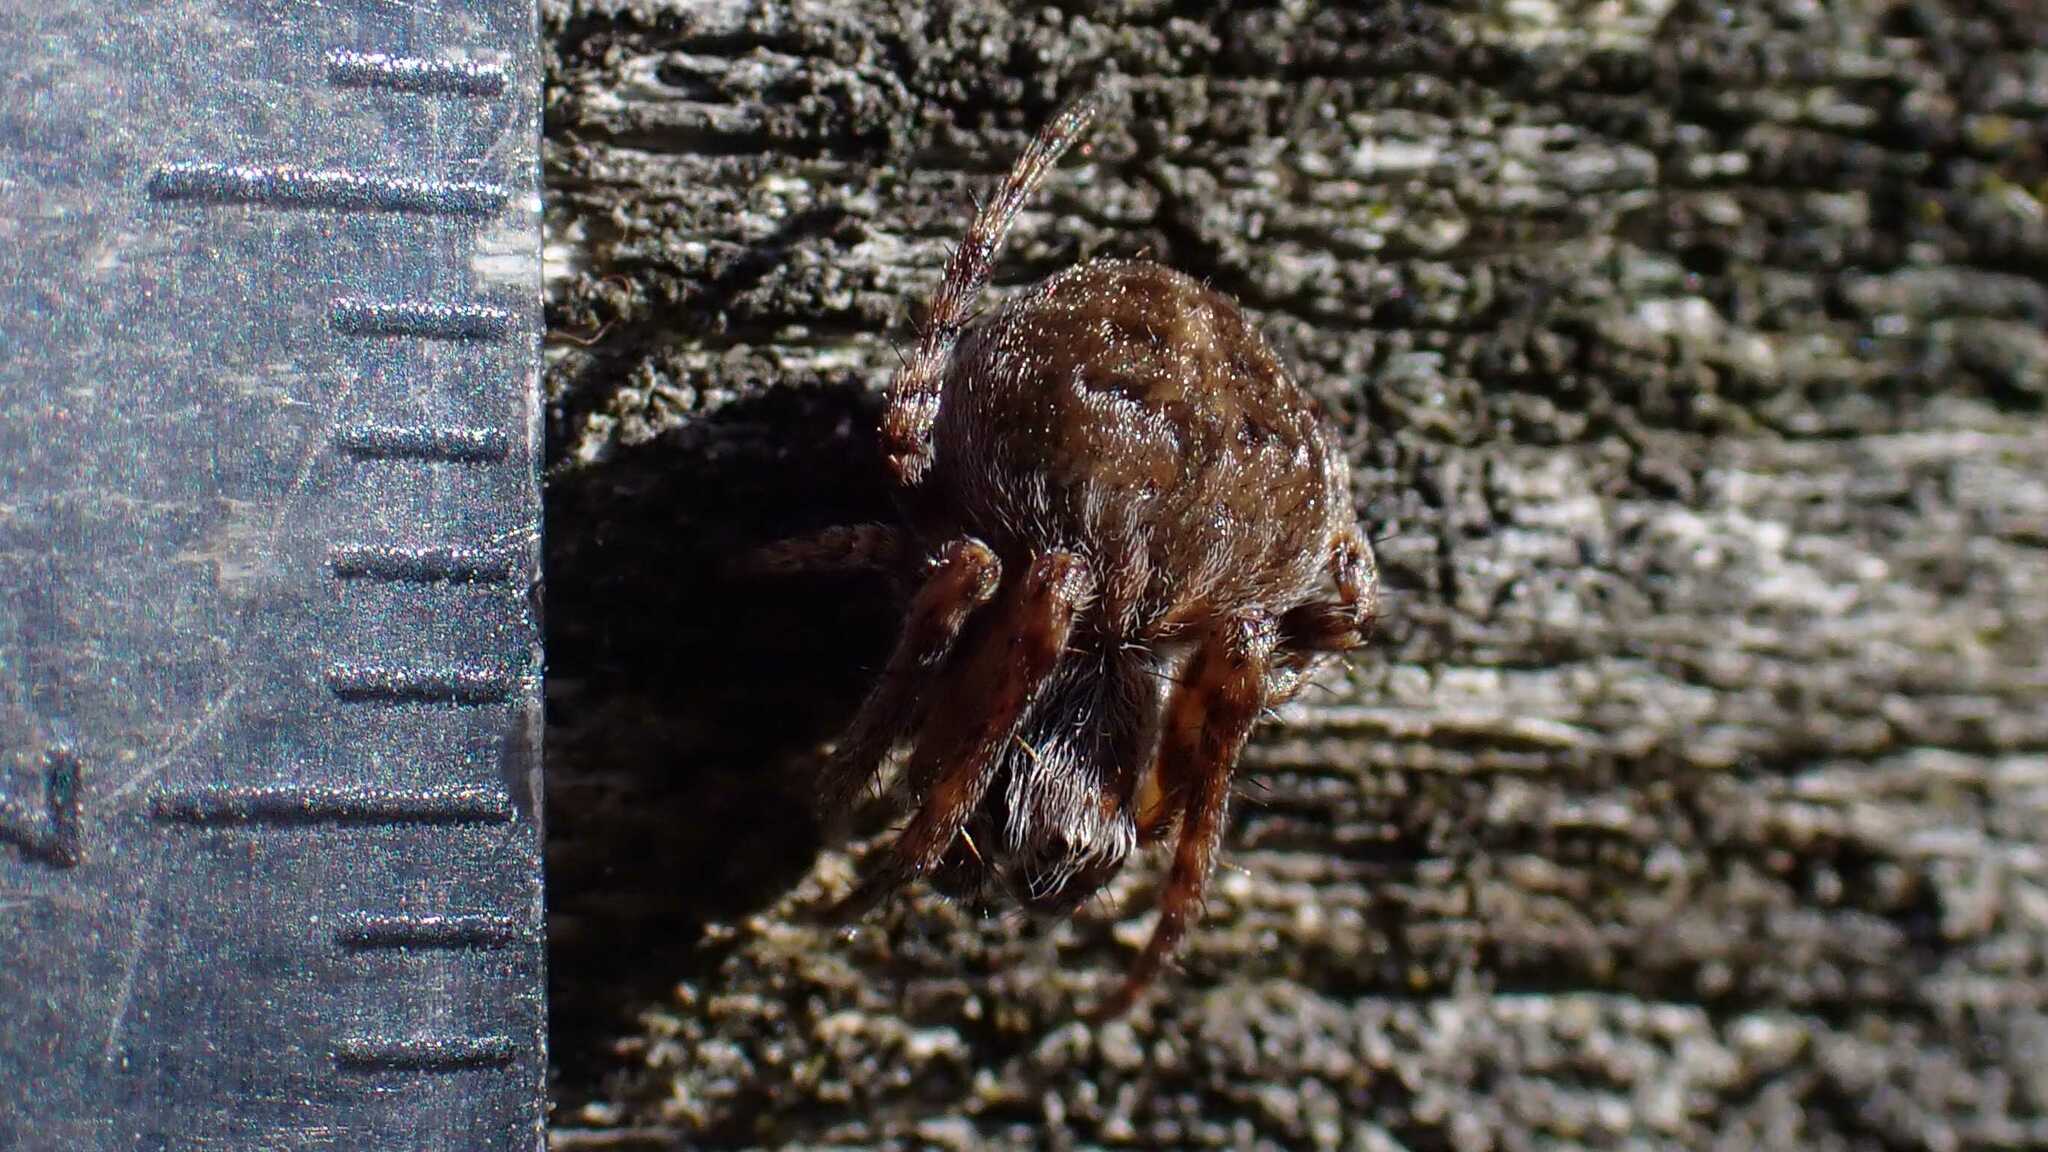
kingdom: Animalia
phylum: Arthropoda
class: Arachnida
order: Araneae
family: Araneidae
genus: Agalenatea
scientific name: Agalenatea redii
